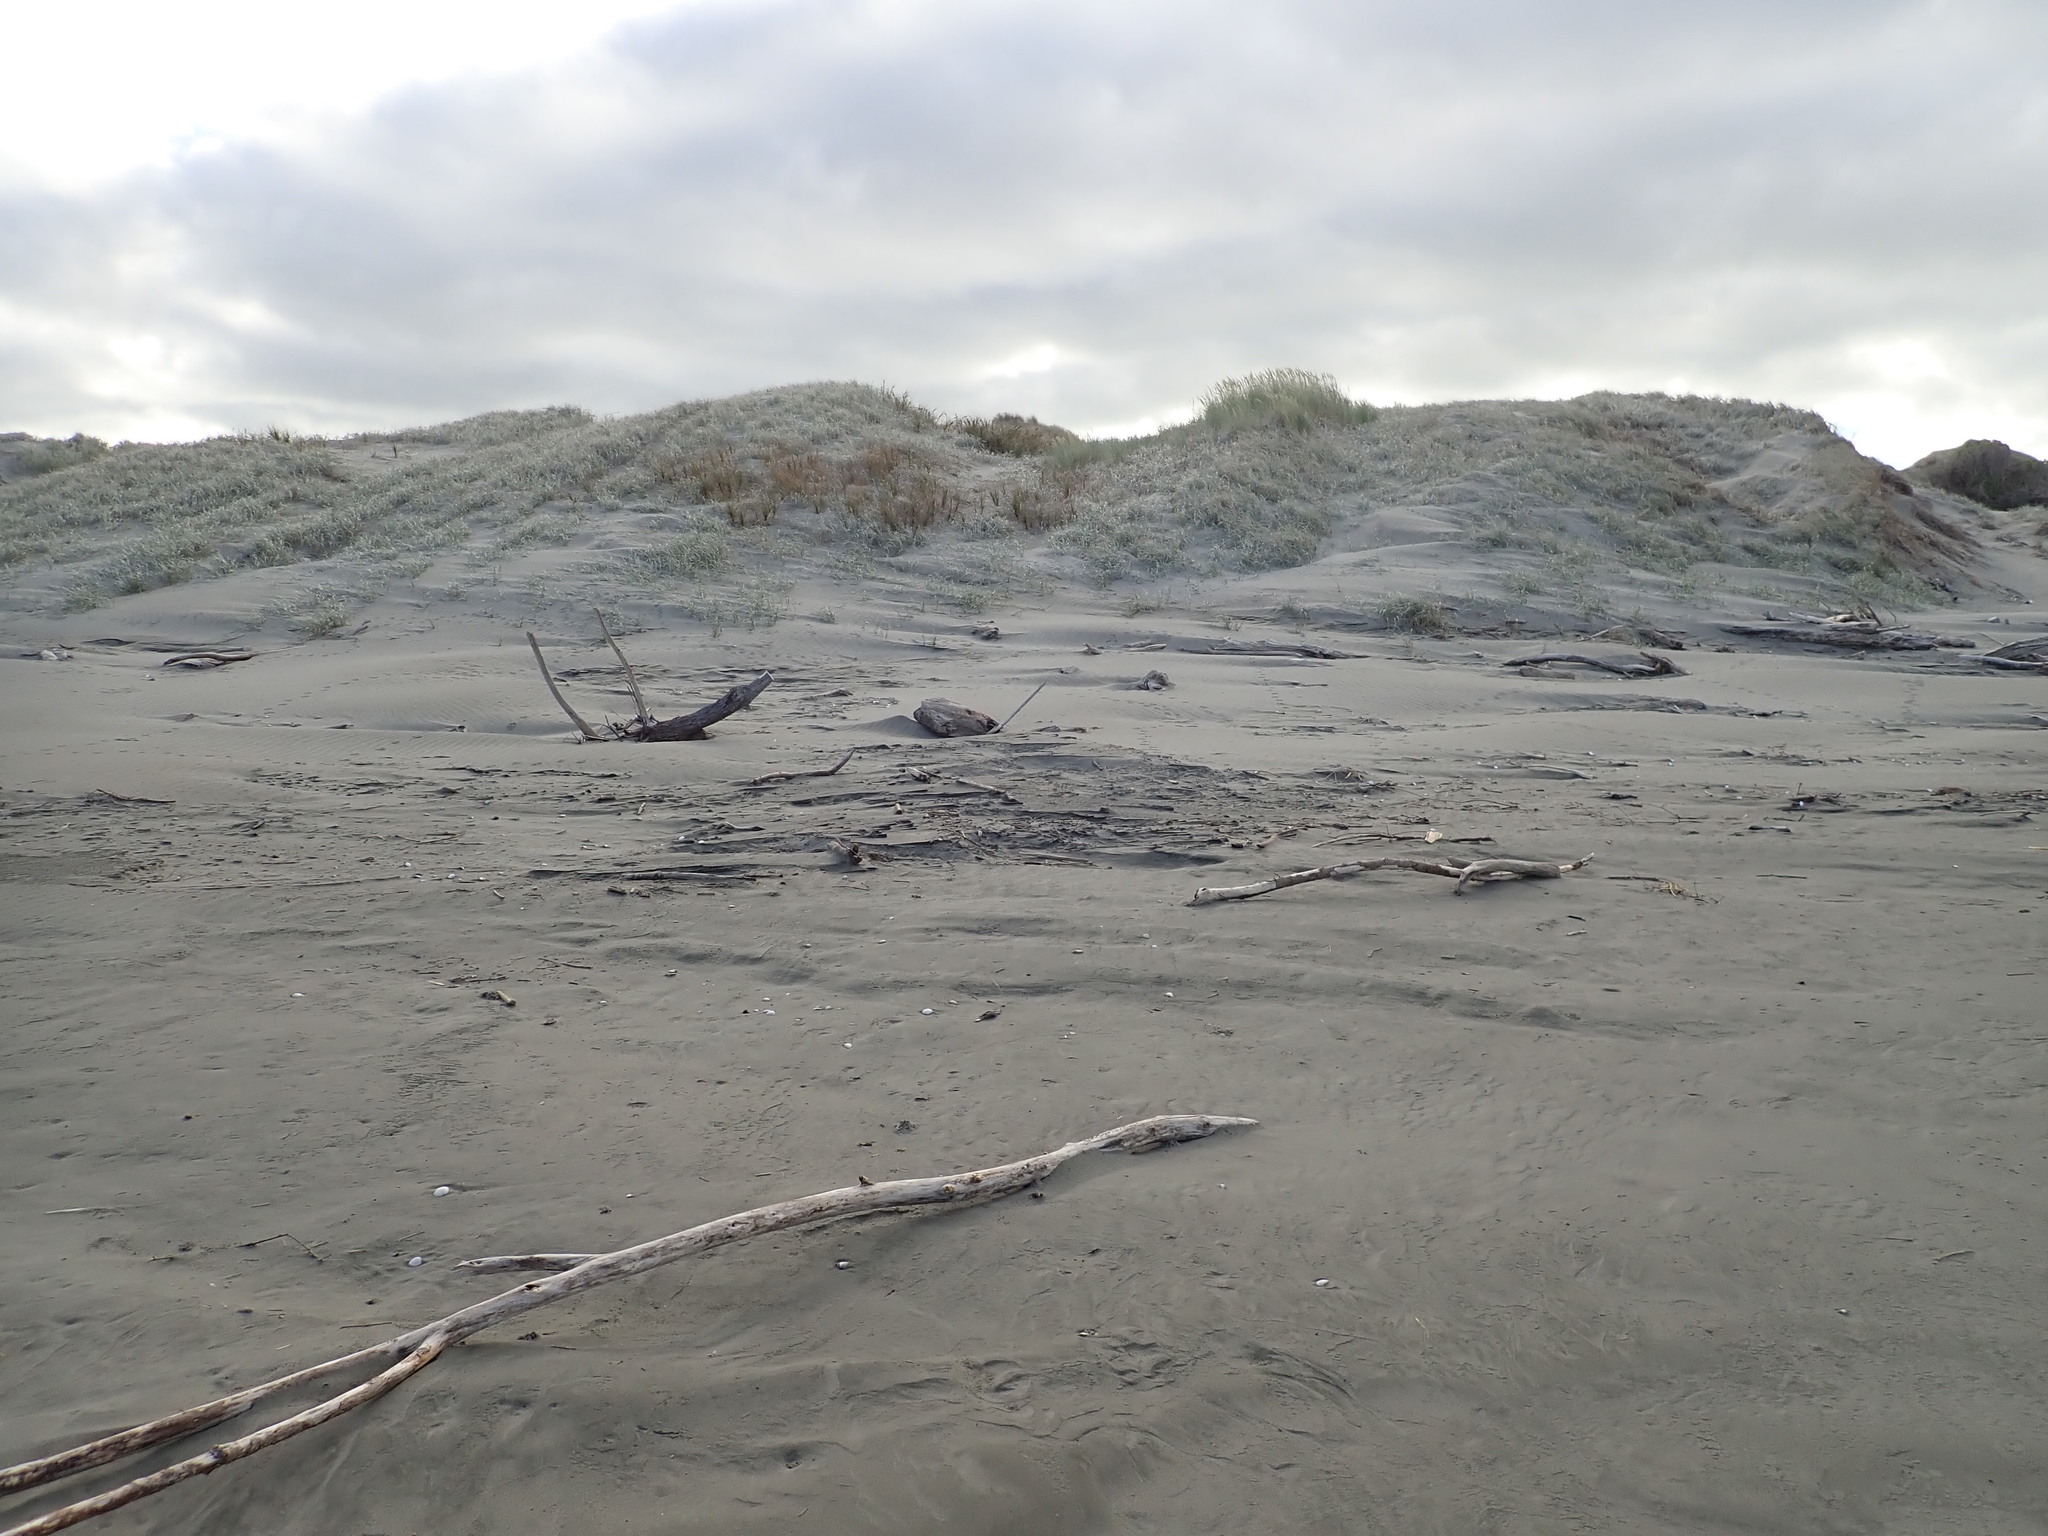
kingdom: Plantae
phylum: Tracheophyta
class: Liliopsida
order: Poales
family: Poaceae
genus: Spinifex
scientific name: Spinifex sericeus
